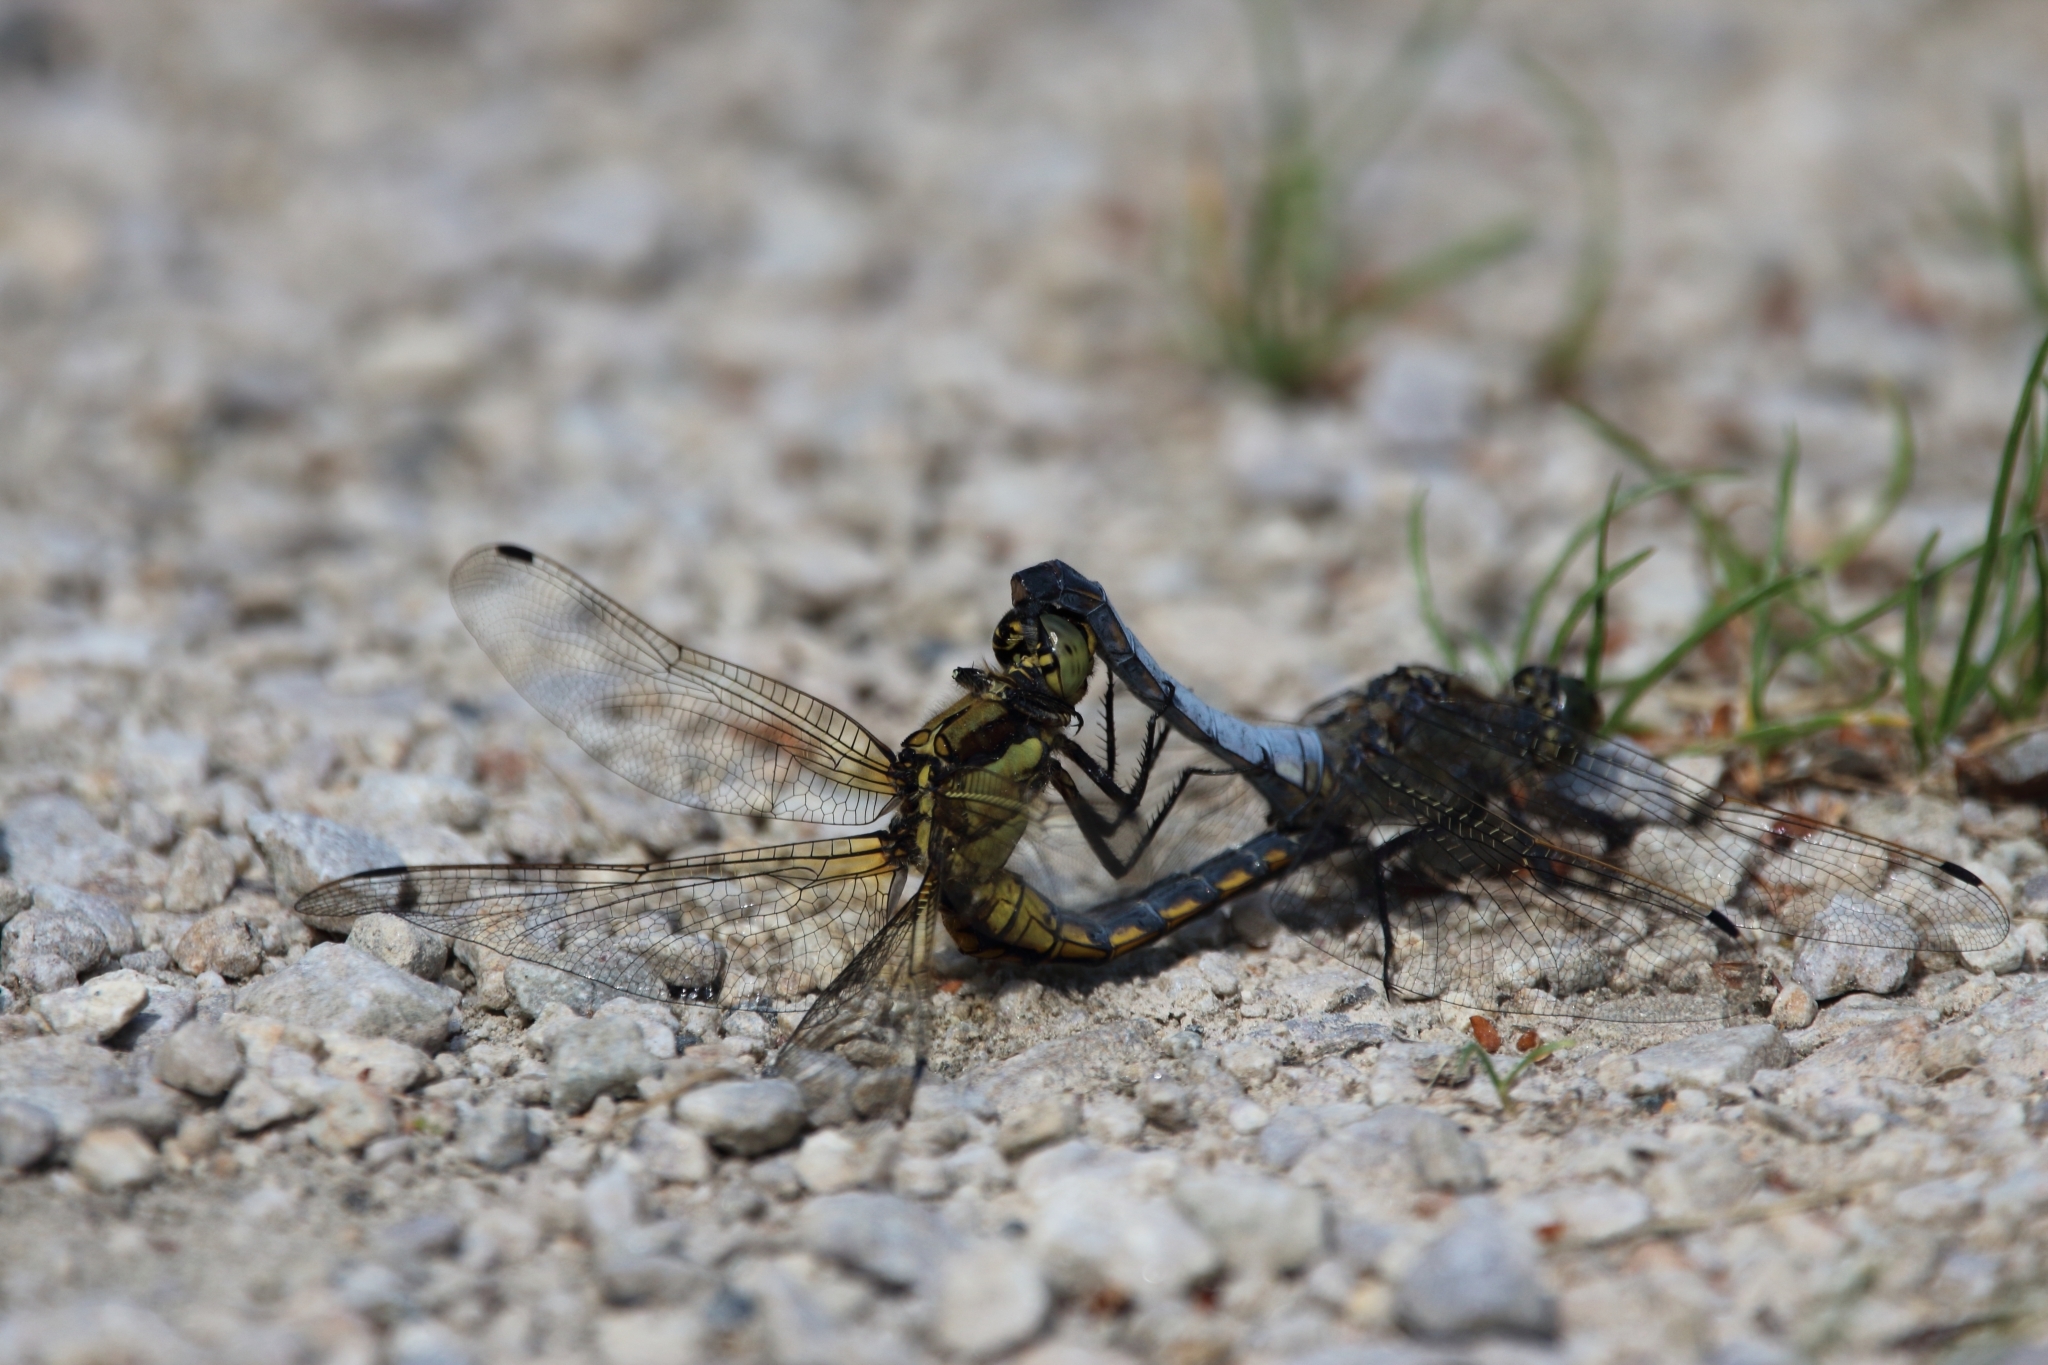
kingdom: Animalia
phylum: Arthropoda
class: Insecta
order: Odonata
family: Libellulidae
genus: Orthetrum
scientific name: Orthetrum cancellatum
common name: Black-tailed skimmer
